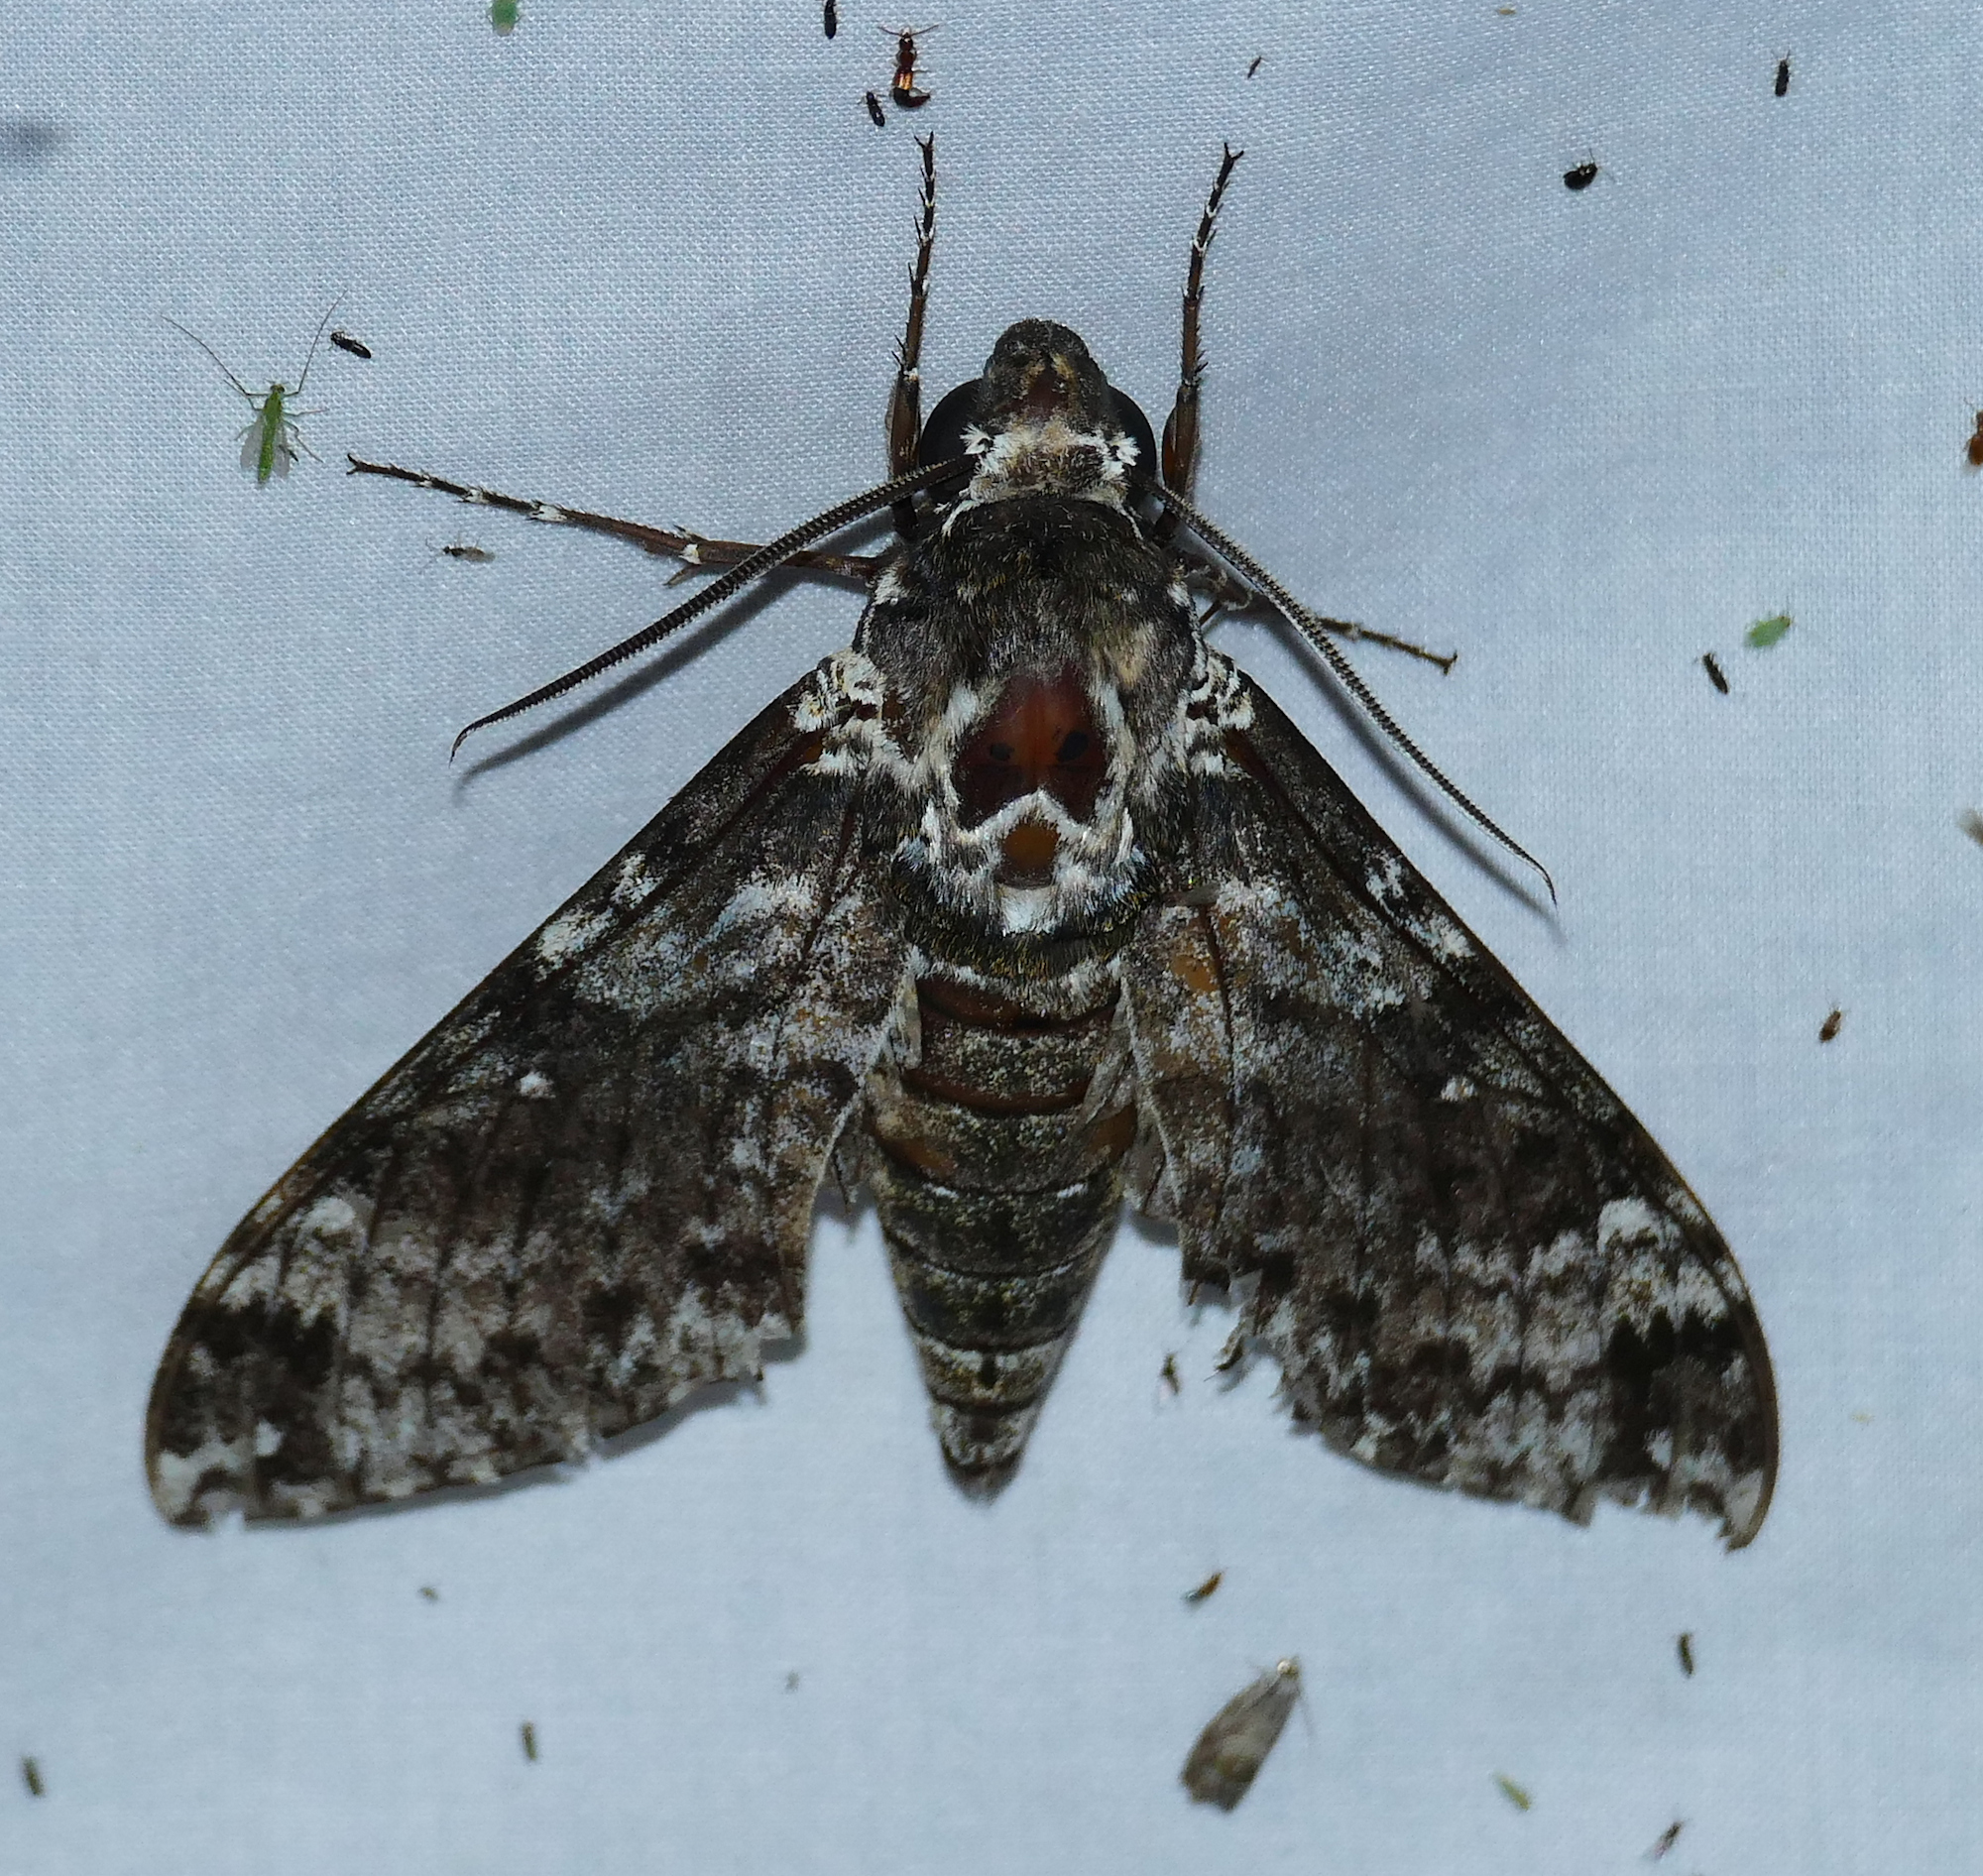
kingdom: Animalia
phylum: Arthropoda
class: Insecta
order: Lepidoptera
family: Sphingidae
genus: Manduca
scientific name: Manduca rustica
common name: Rustic sphinx
